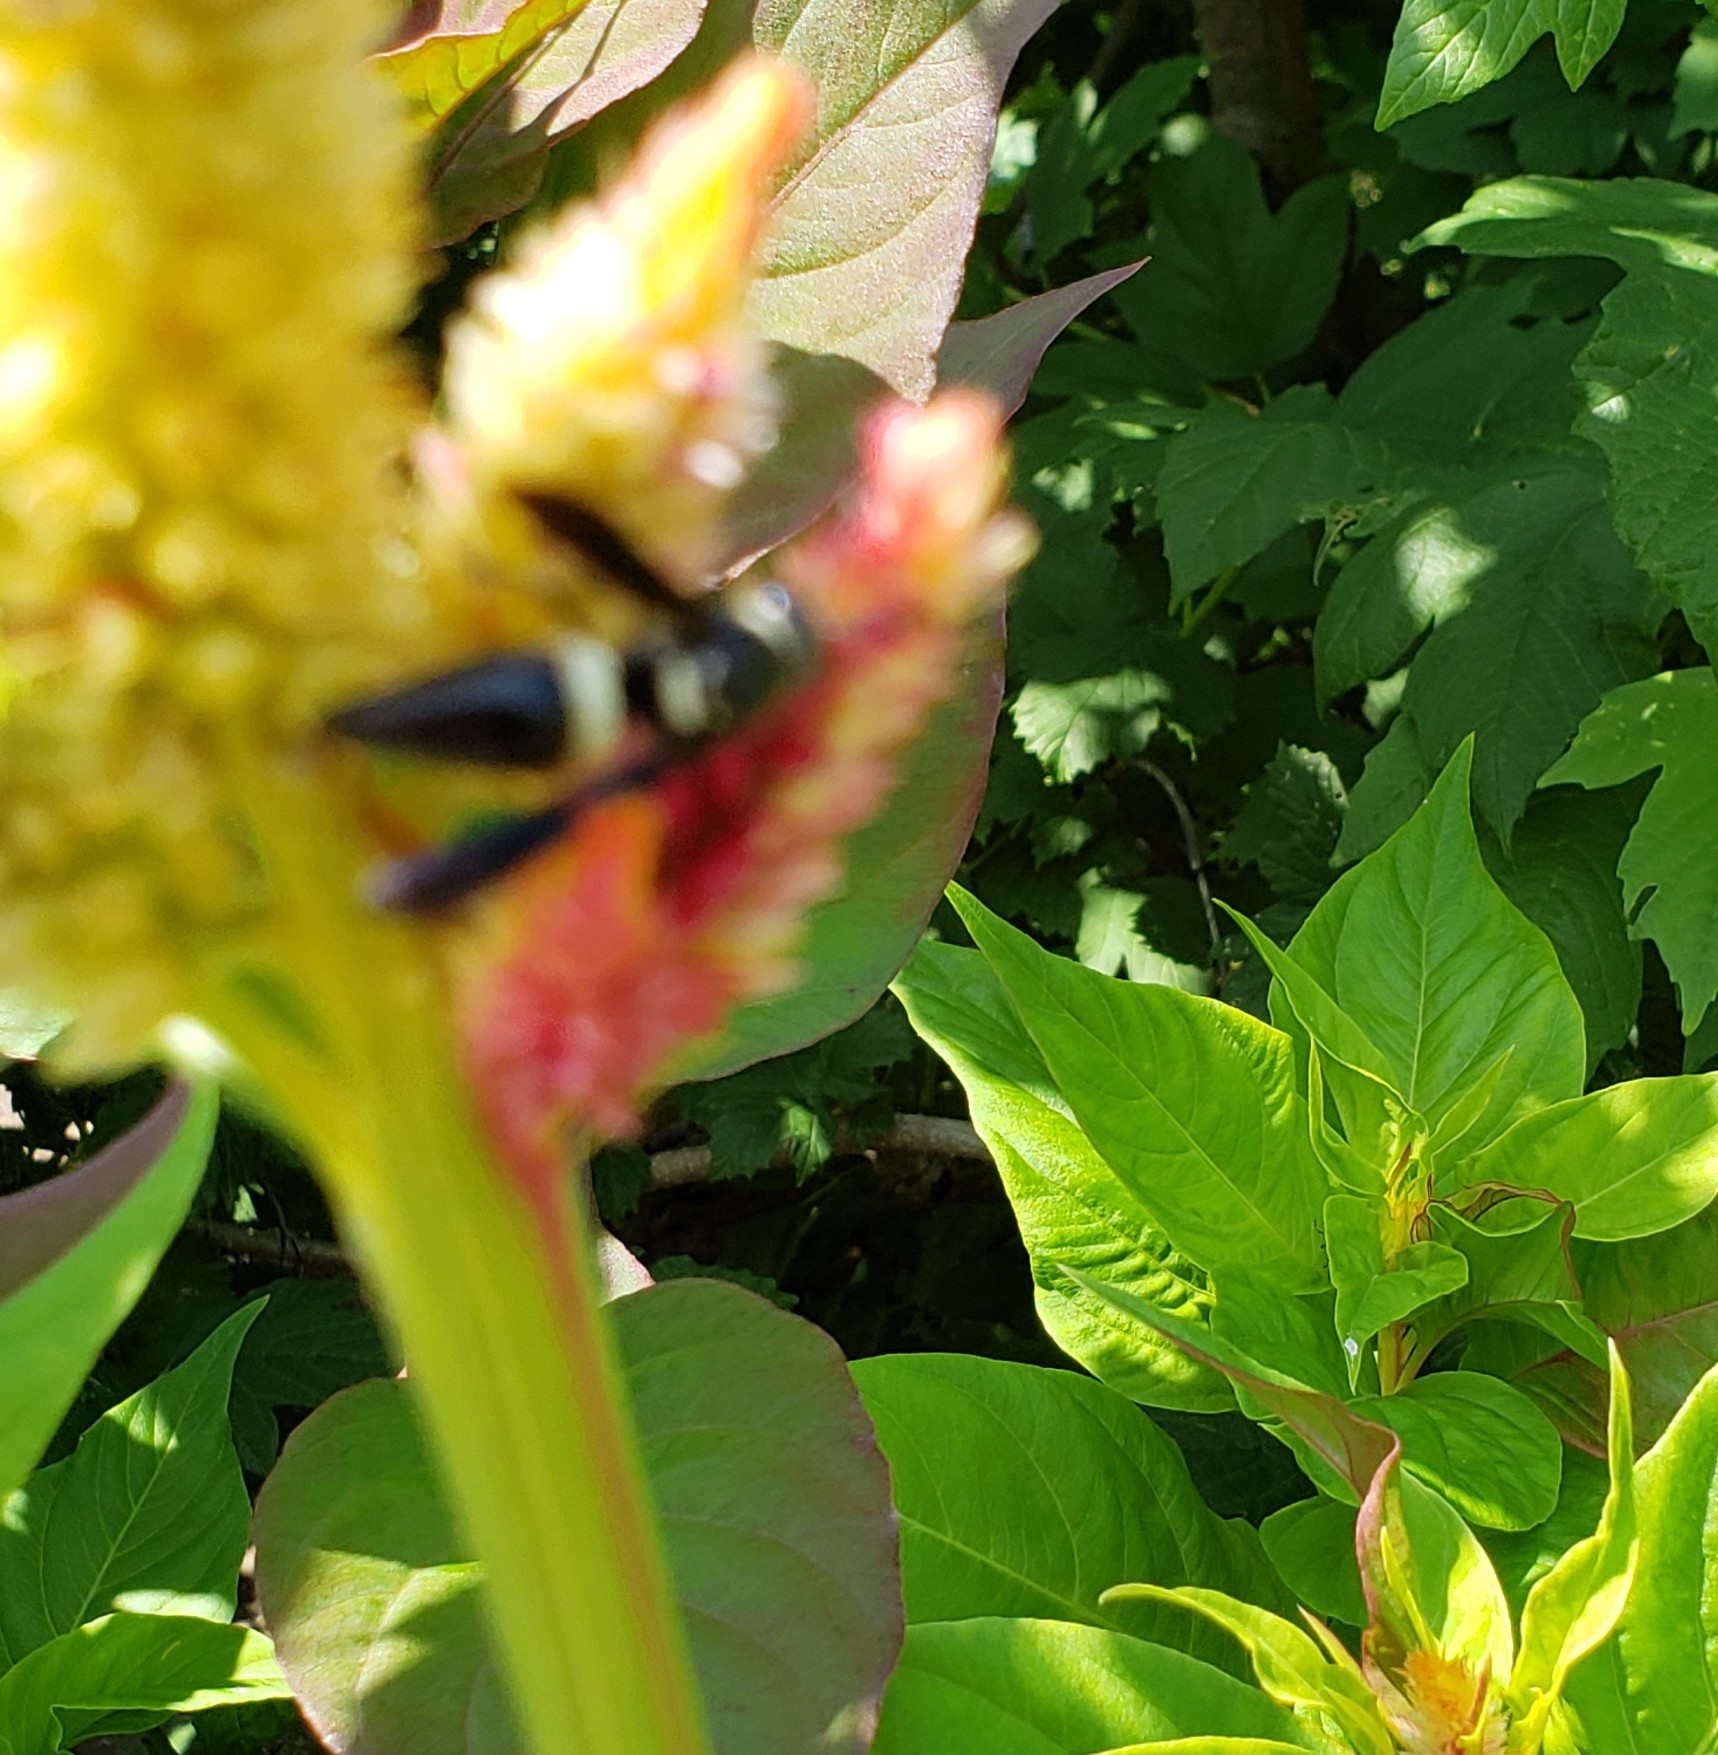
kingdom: Animalia
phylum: Arthropoda
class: Insecta
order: Hymenoptera
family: Eumenidae
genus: Monobia
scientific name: Monobia quadridens
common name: Four-toothed mason wasp
